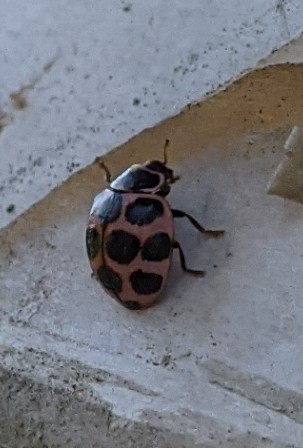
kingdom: Animalia
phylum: Arthropoda
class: Insecta
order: Coleoptera
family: Coccinellidae
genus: Calvia
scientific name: Calvia quatuordecimguttata
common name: Cream-spot ladybird
